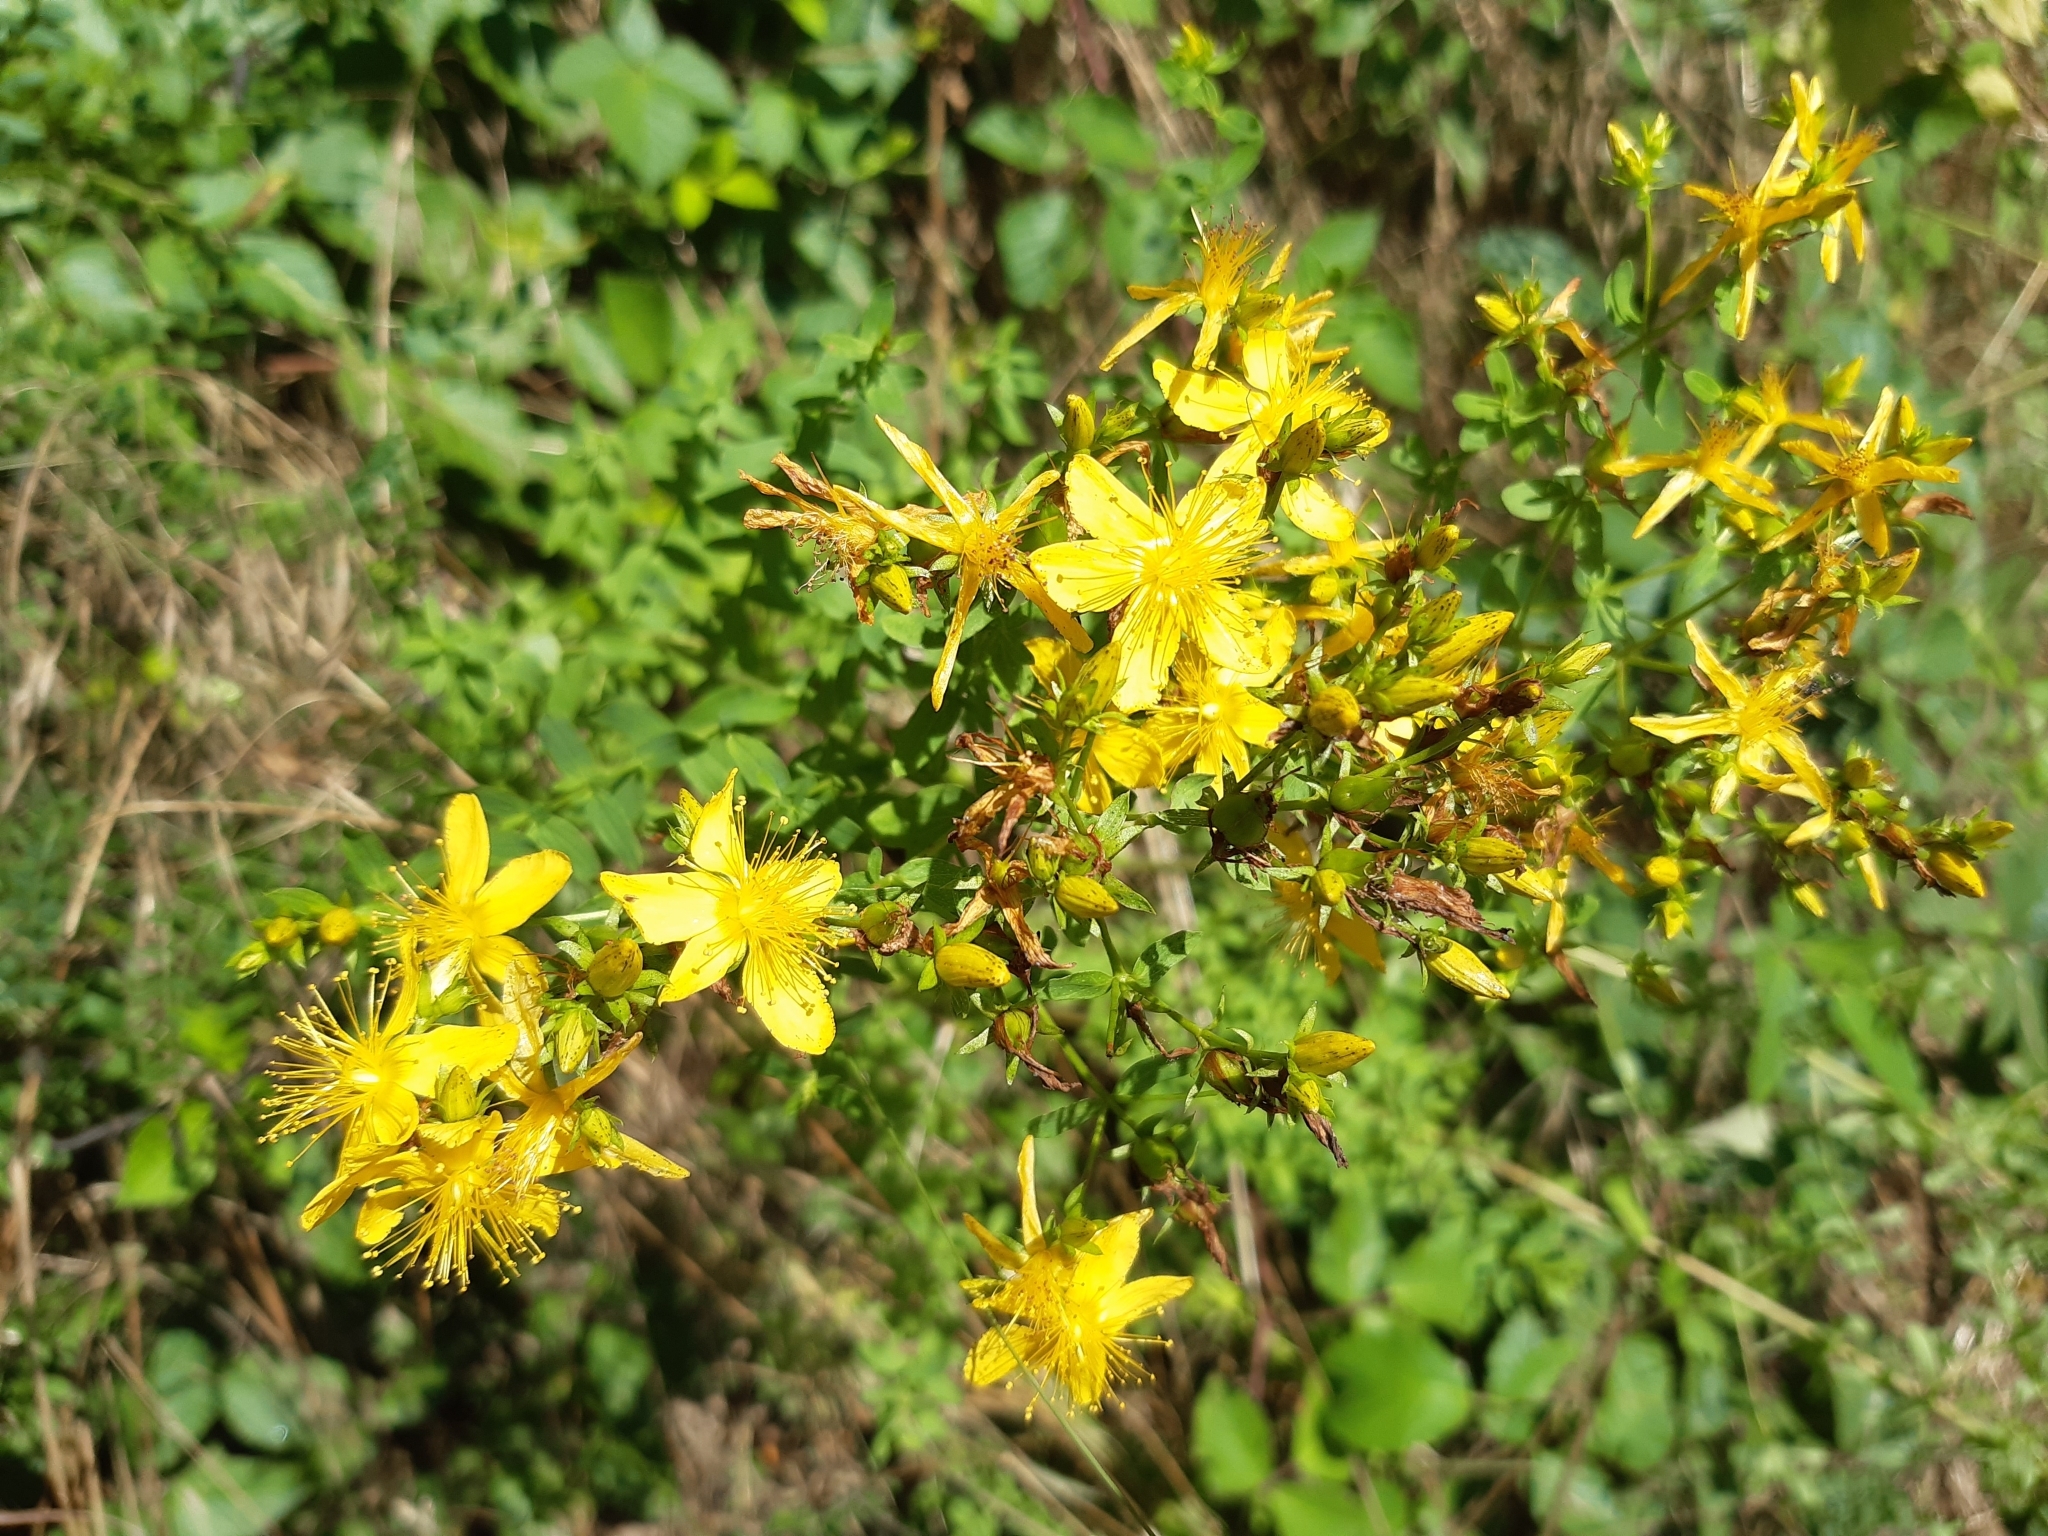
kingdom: Plantae
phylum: Tracheophyta
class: Magnoliopsida
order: Malpighiales
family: Hypericaceae
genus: Hypericum
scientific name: Hypericum perforatum
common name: Common st. johnswort
